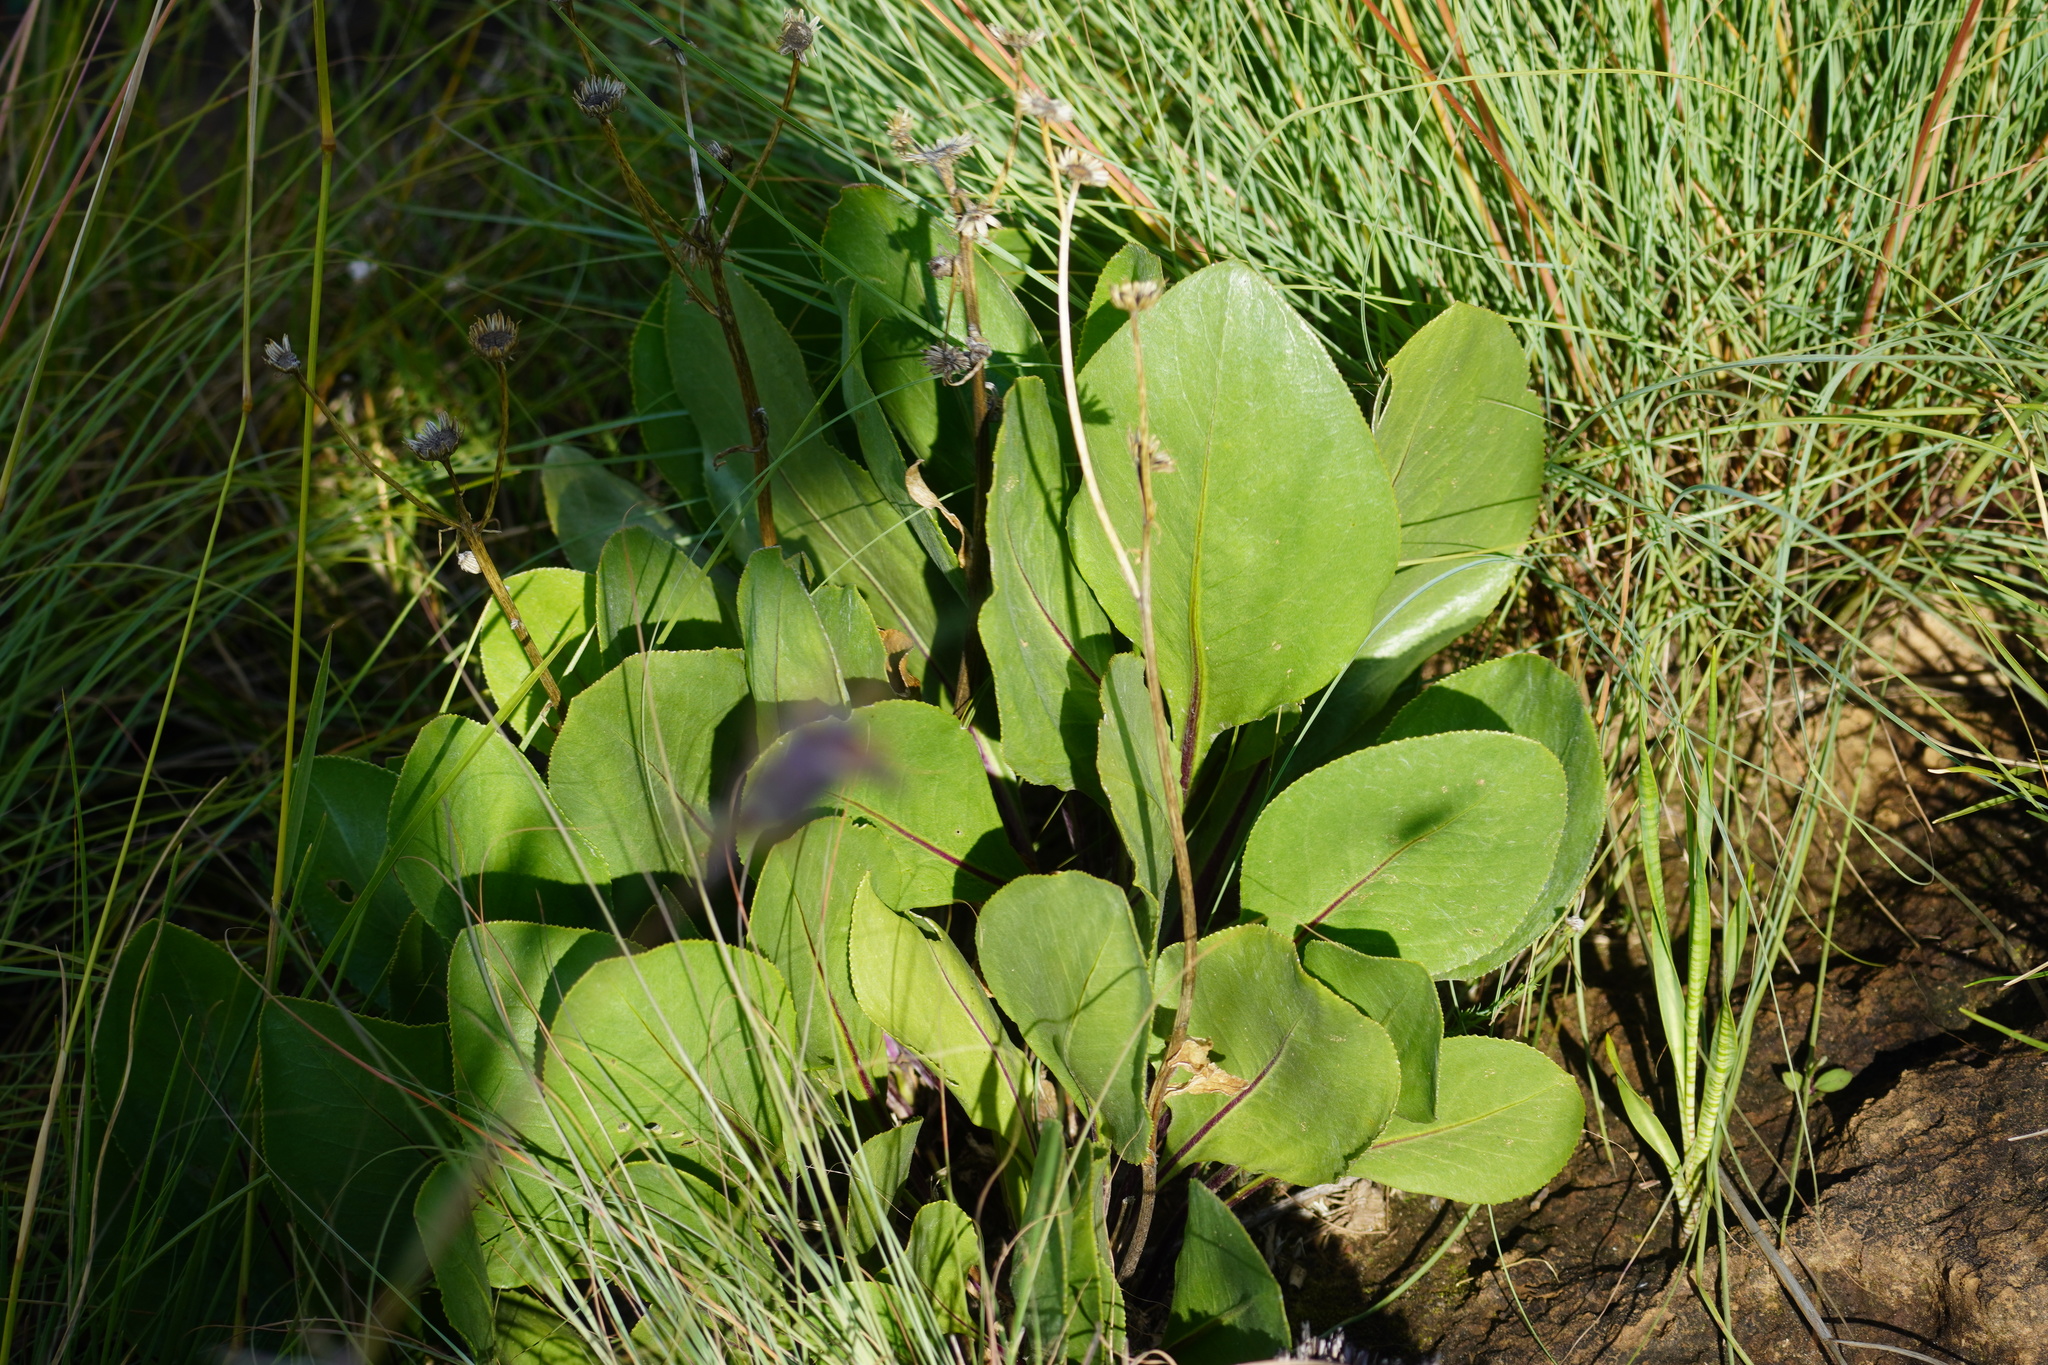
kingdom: Plantae
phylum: Tracheophyta
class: Magnoliopsida
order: Asterales
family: Asteraceae
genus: Senecio
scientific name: Senecio coronatus
